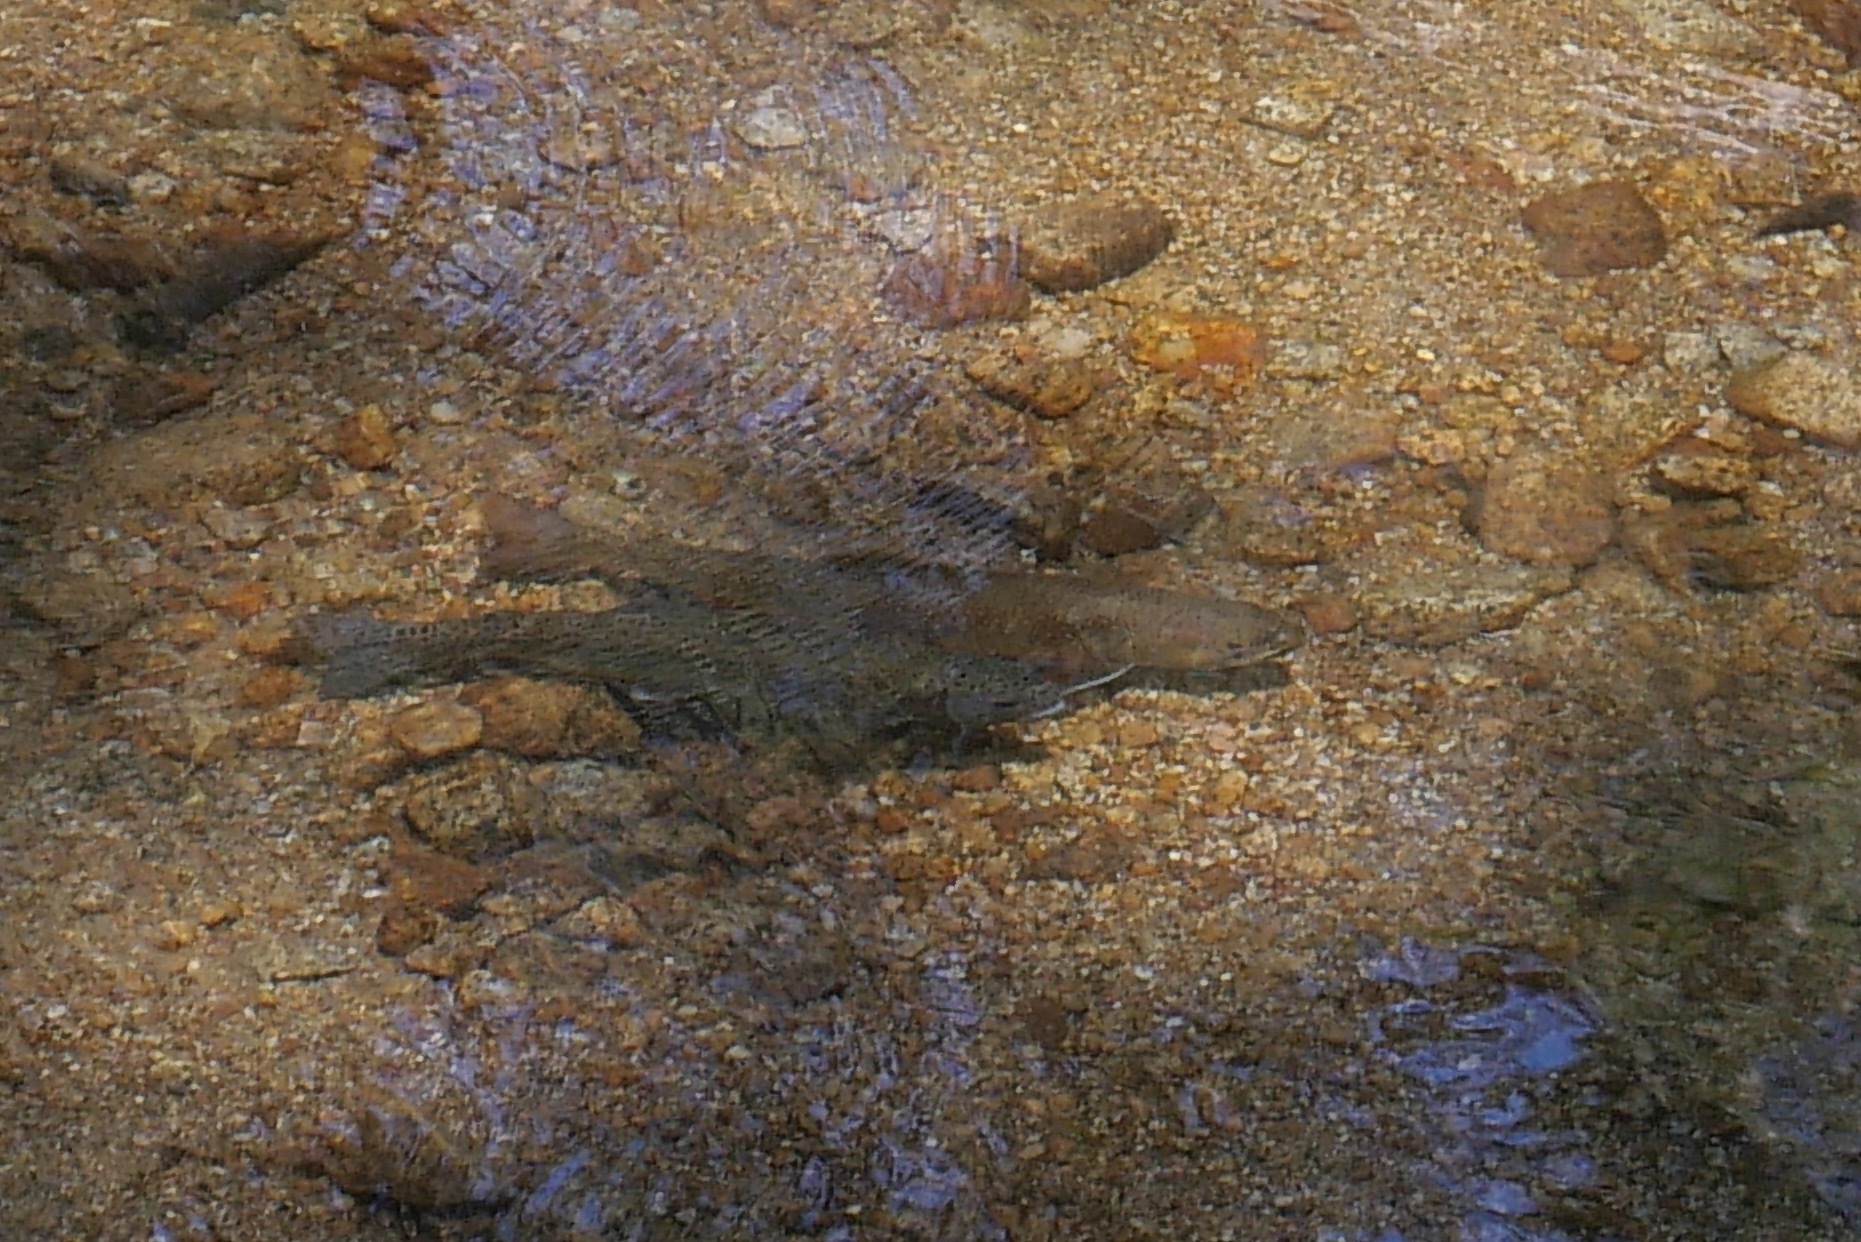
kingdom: Animalia
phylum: Chordata
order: Salmoniformes
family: Salmonidae
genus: Salvelinus
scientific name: Salvelinus fontinalis
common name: Brook trout
